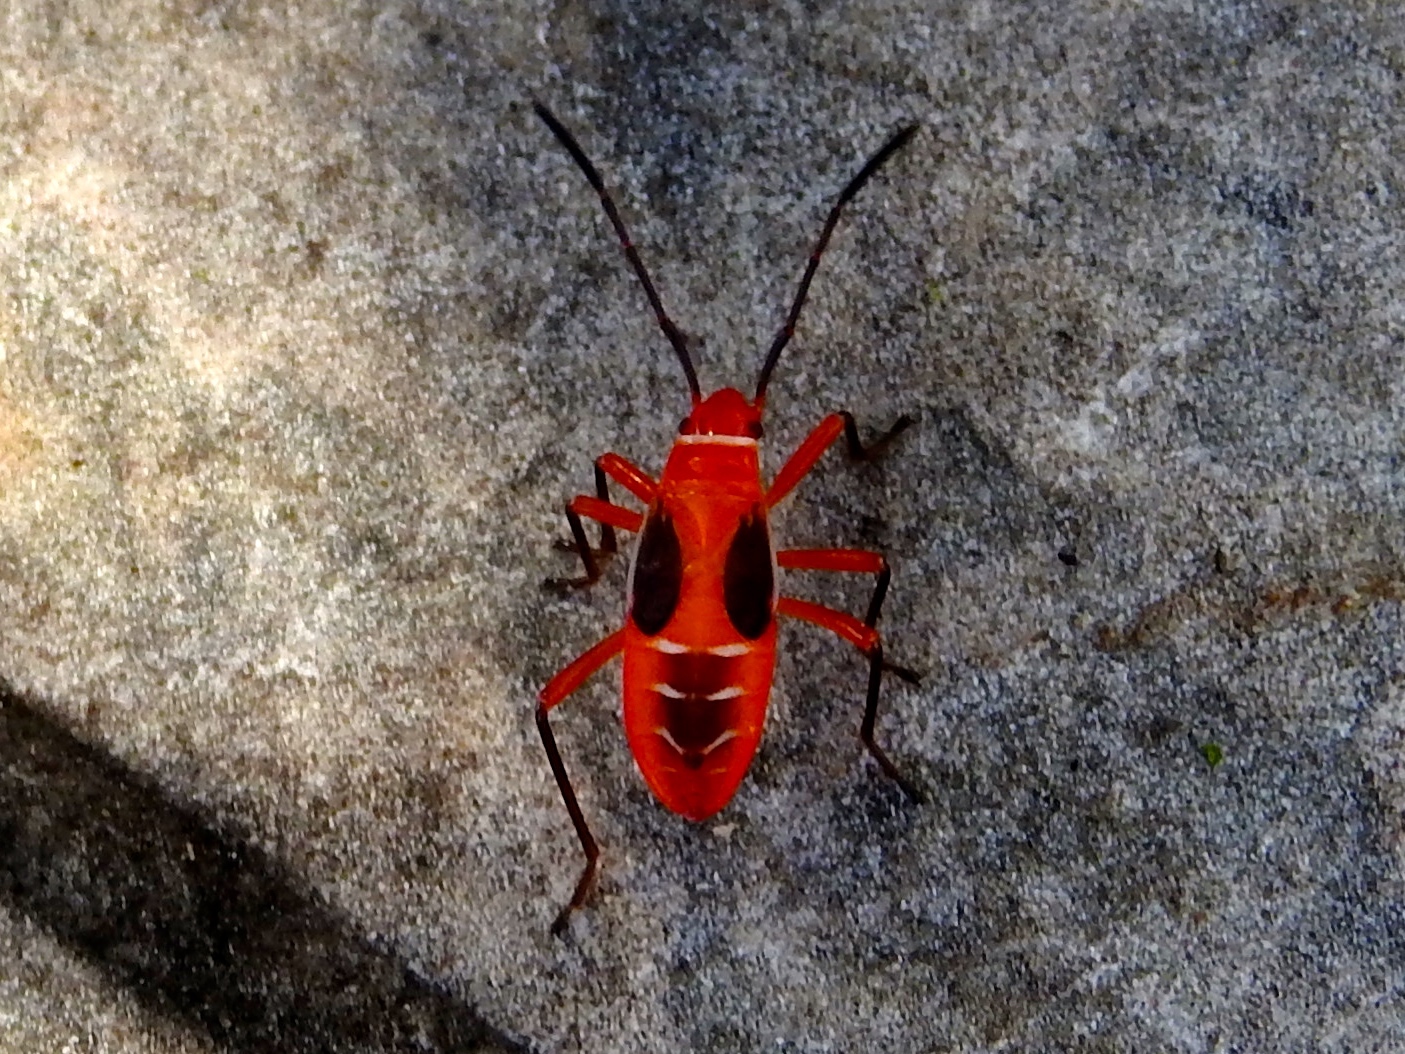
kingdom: Animalia
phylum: Arthropoda
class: Insecta
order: Hemiptera
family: Pyrrhocoridae
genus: Dysdercus
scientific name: Dysdercus
